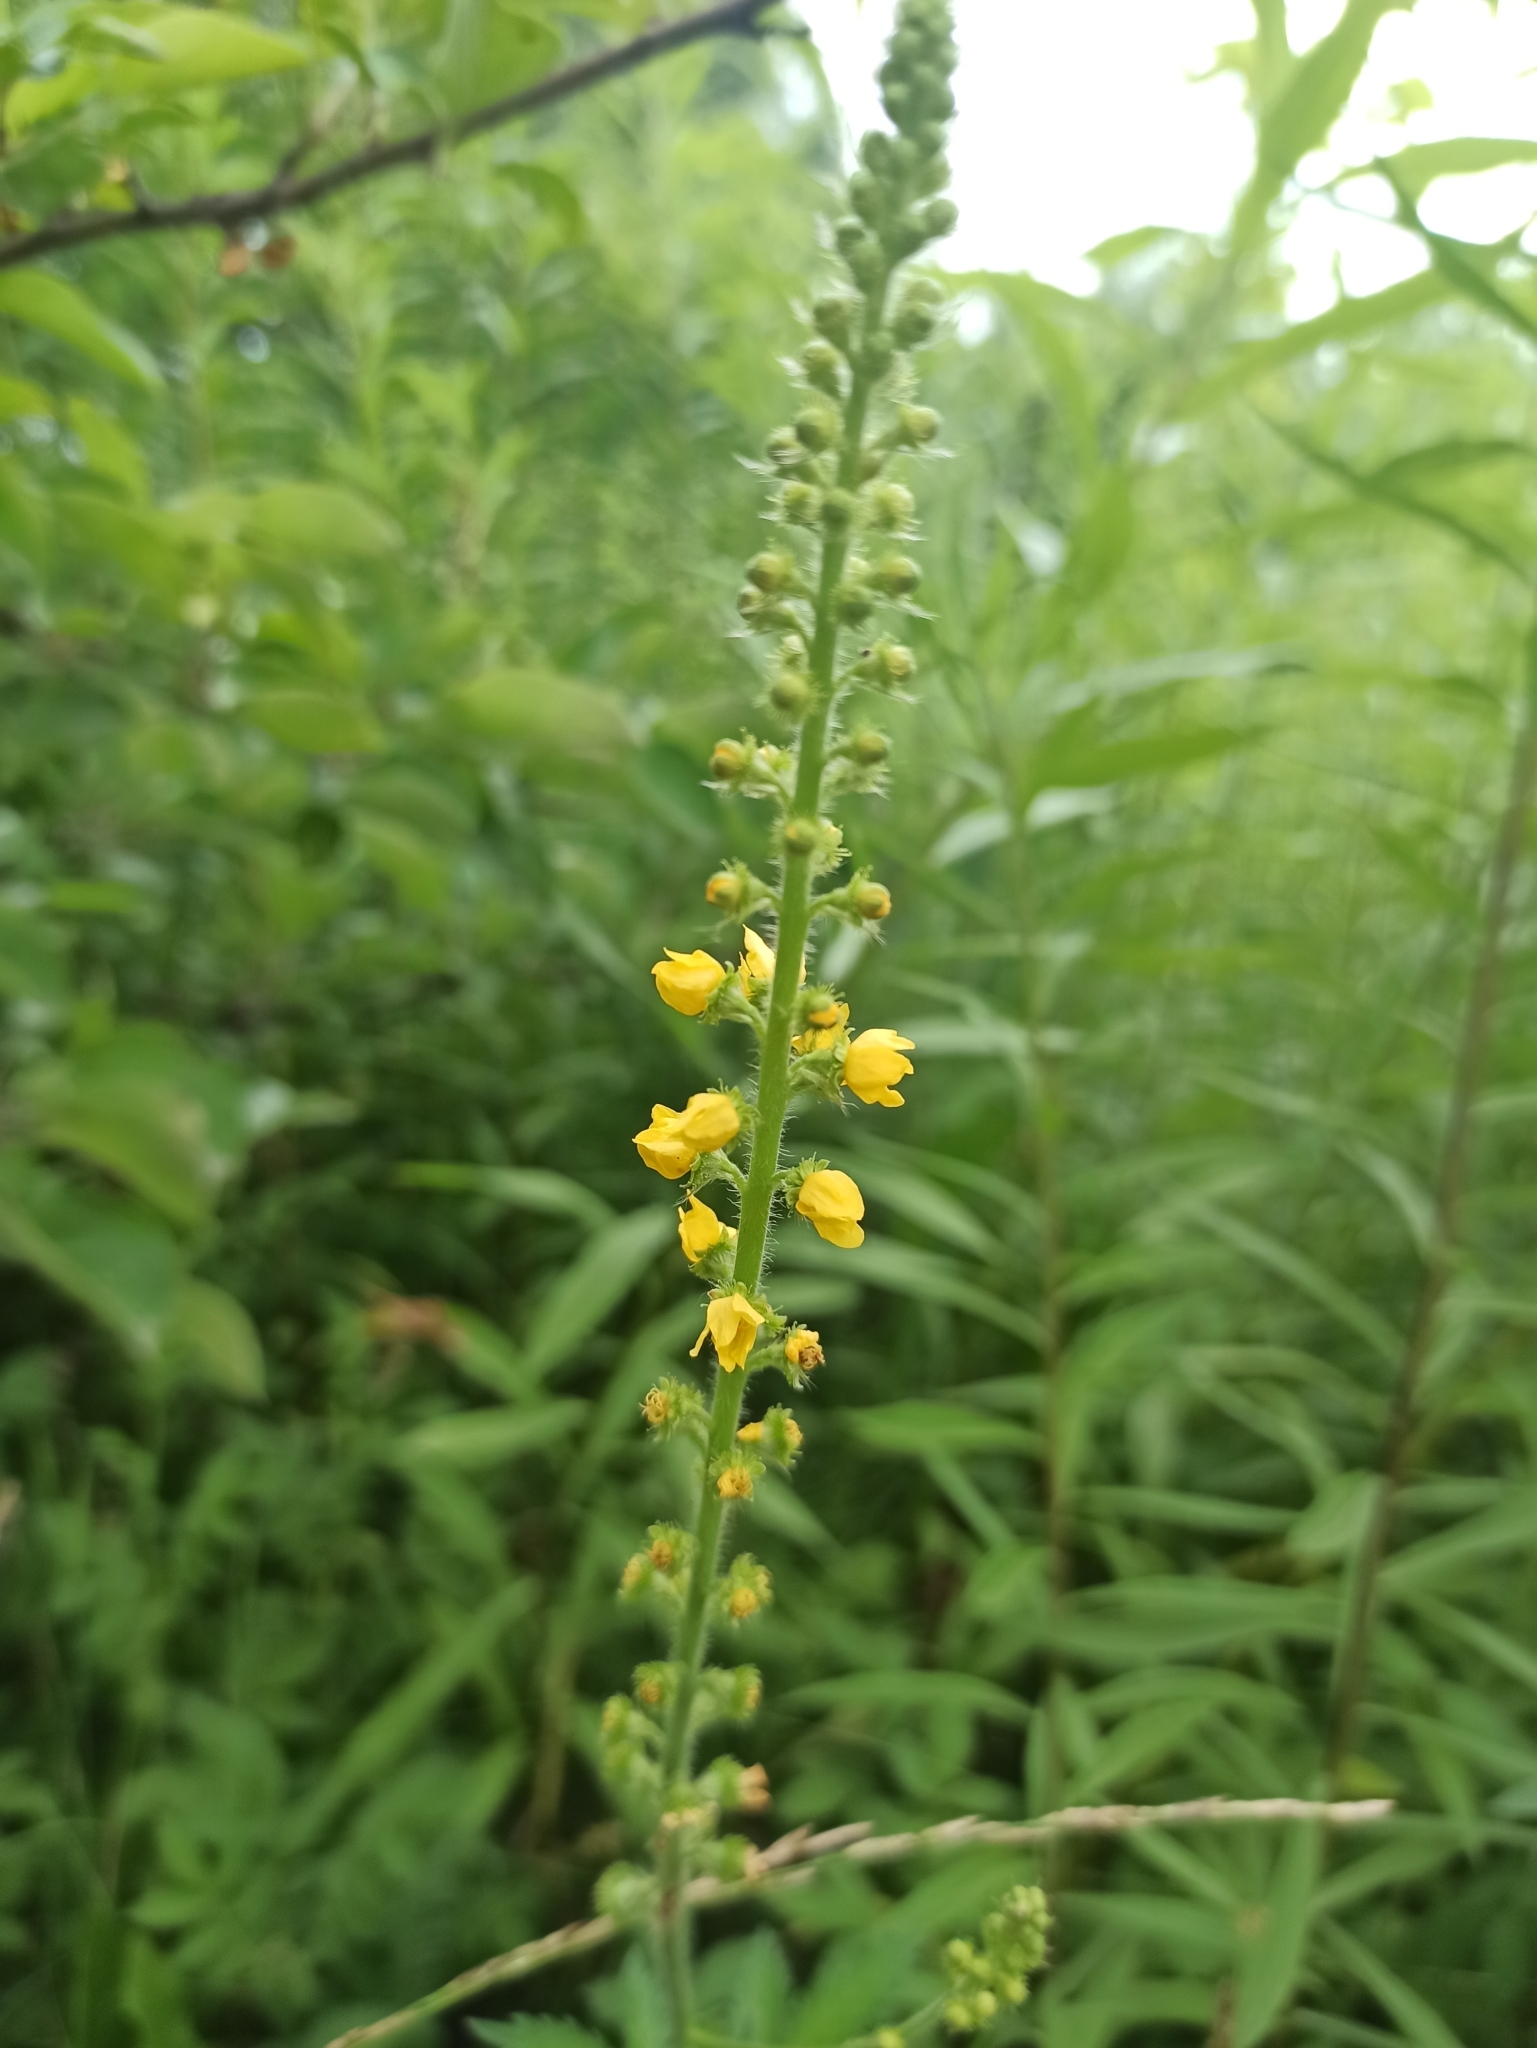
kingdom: Plantae
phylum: Tracheophyta
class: Magnoliopsida
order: Rosales
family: Rosaceae
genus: Agrimonia
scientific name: Agrimonia eupatoria
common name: Agrimony
